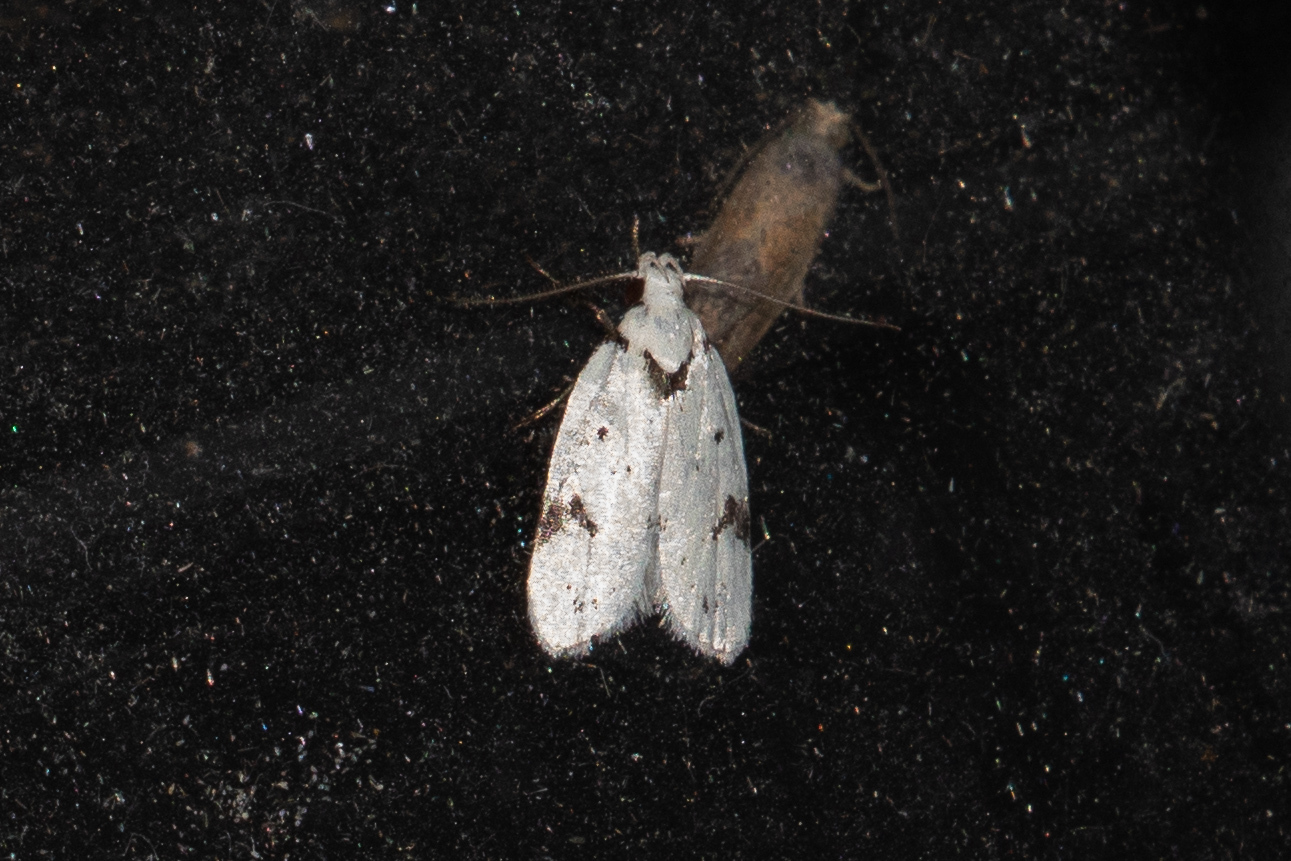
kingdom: Animalia
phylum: Arthropoda
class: Insecta
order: Lepidoptera
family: Oecophoridae
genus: Inga
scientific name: Inga sparsiciliella
